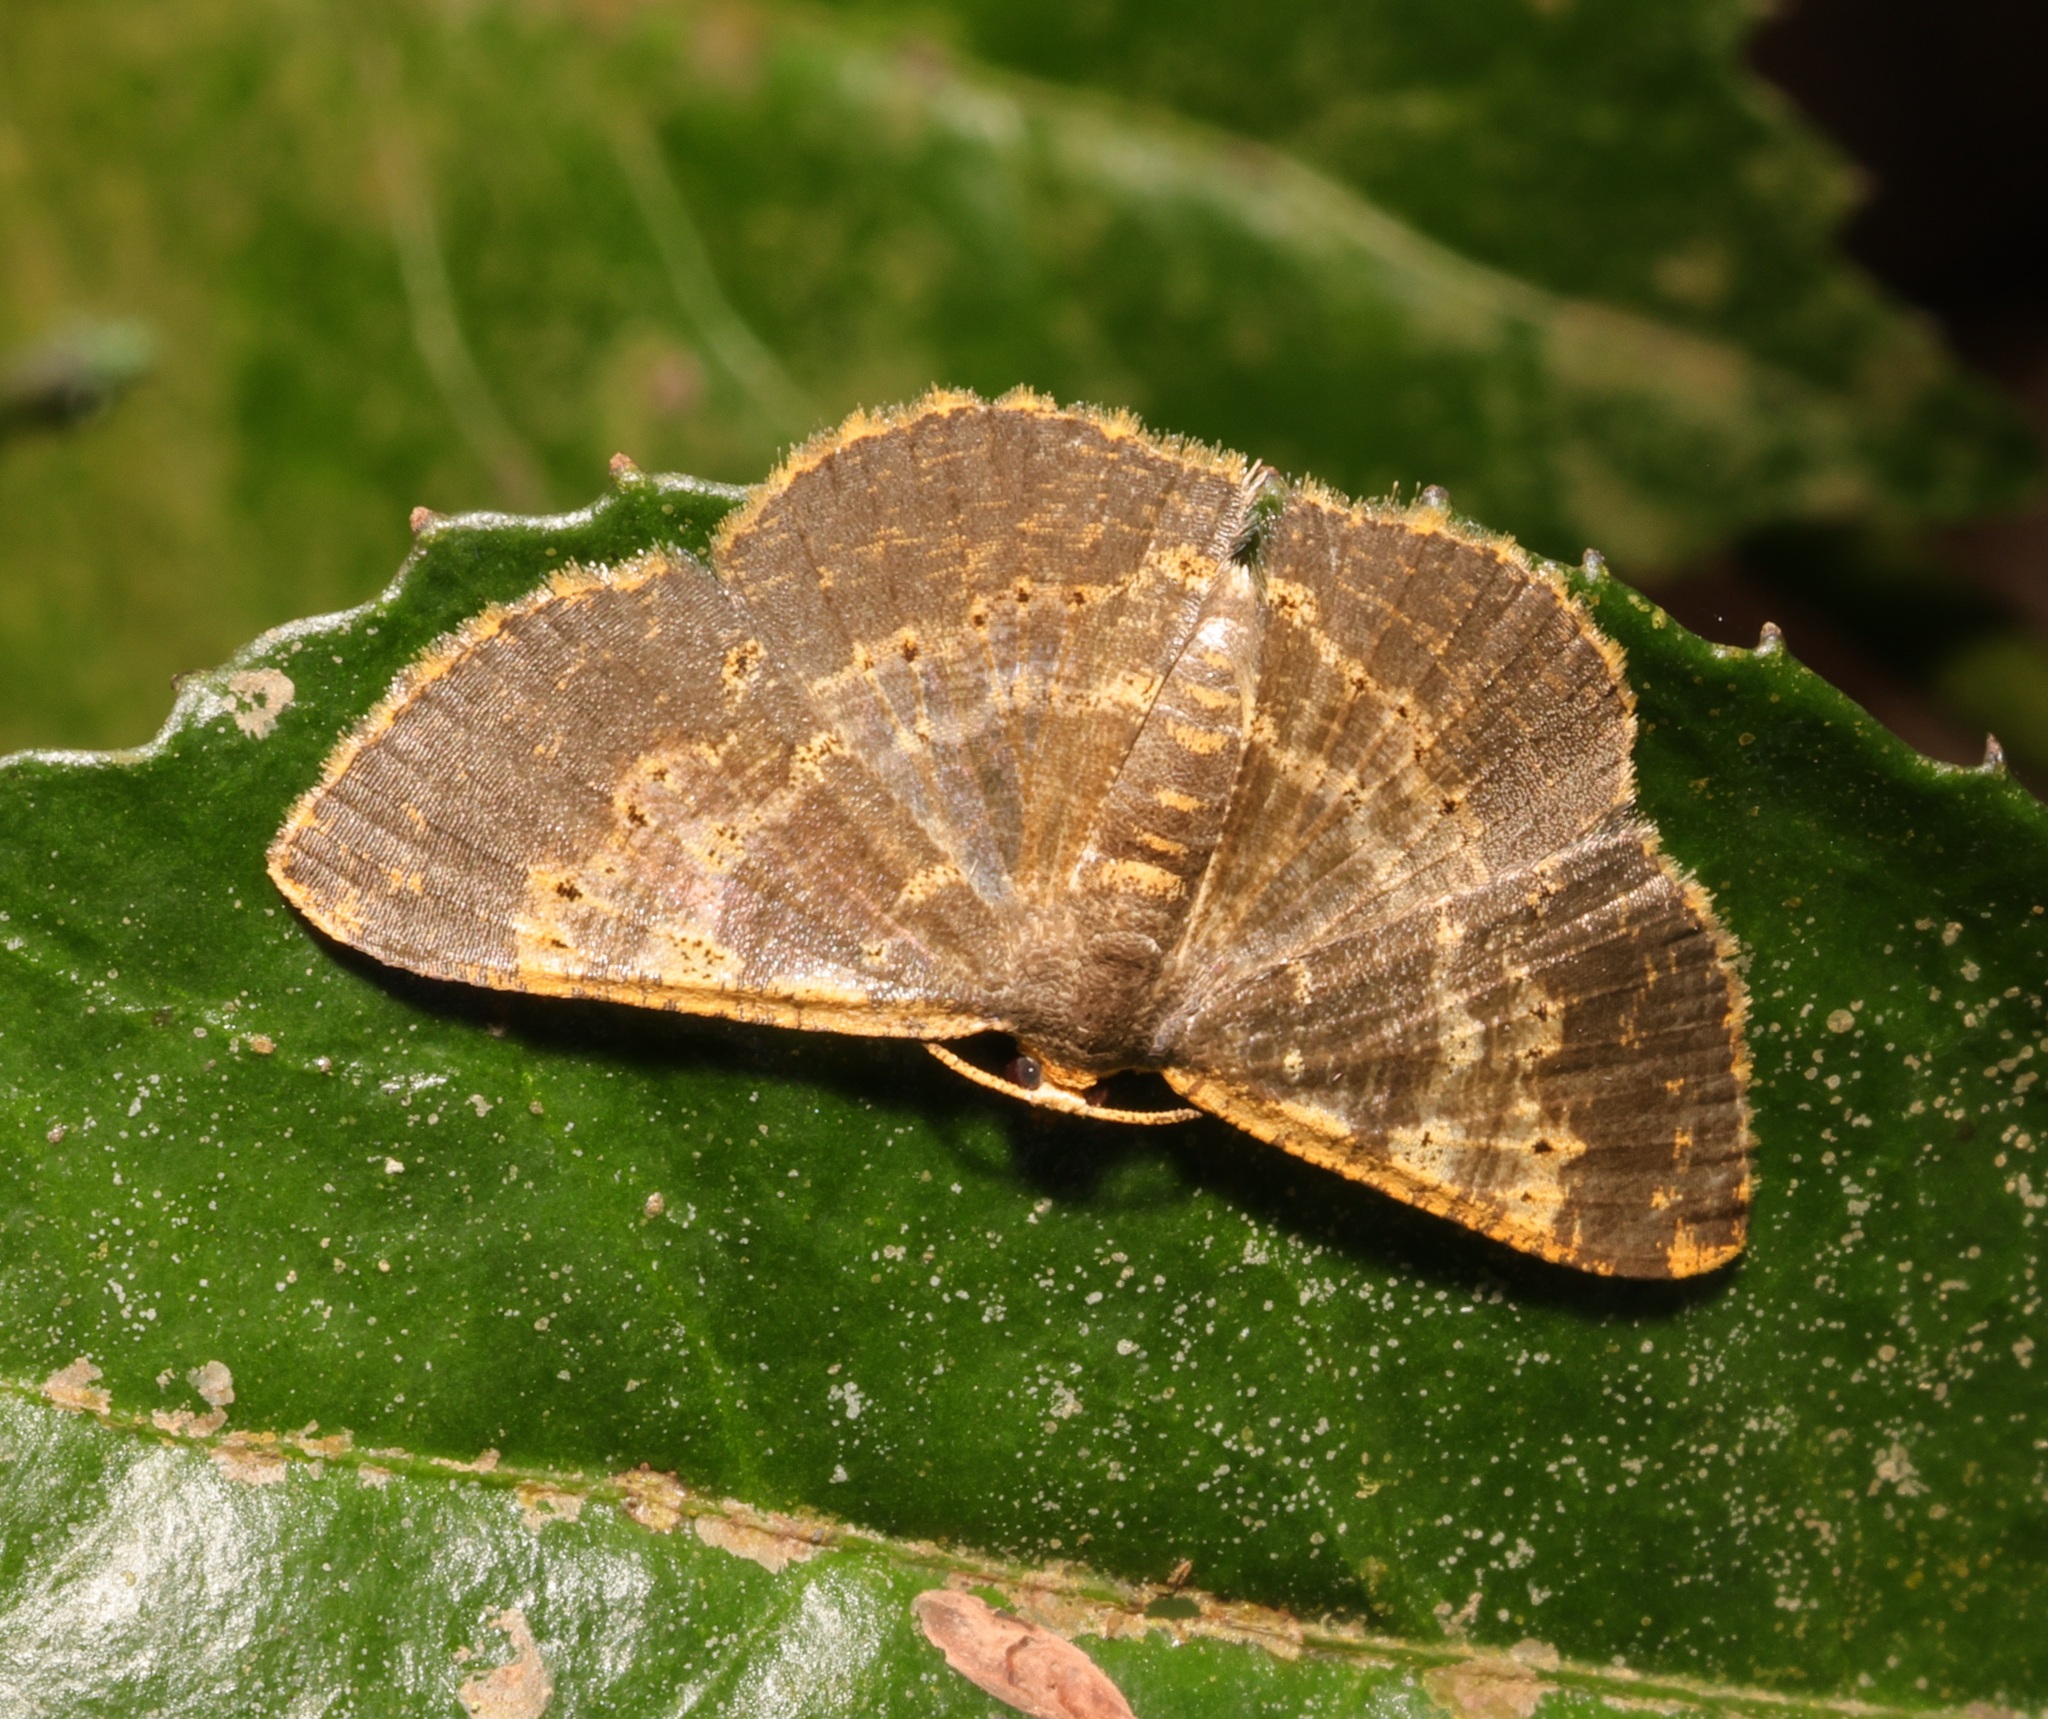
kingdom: Animalia
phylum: Arthropoda
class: Insecta
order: Lepidoptera
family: Geometridae
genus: Peratophyga
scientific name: Peratophyga crista
